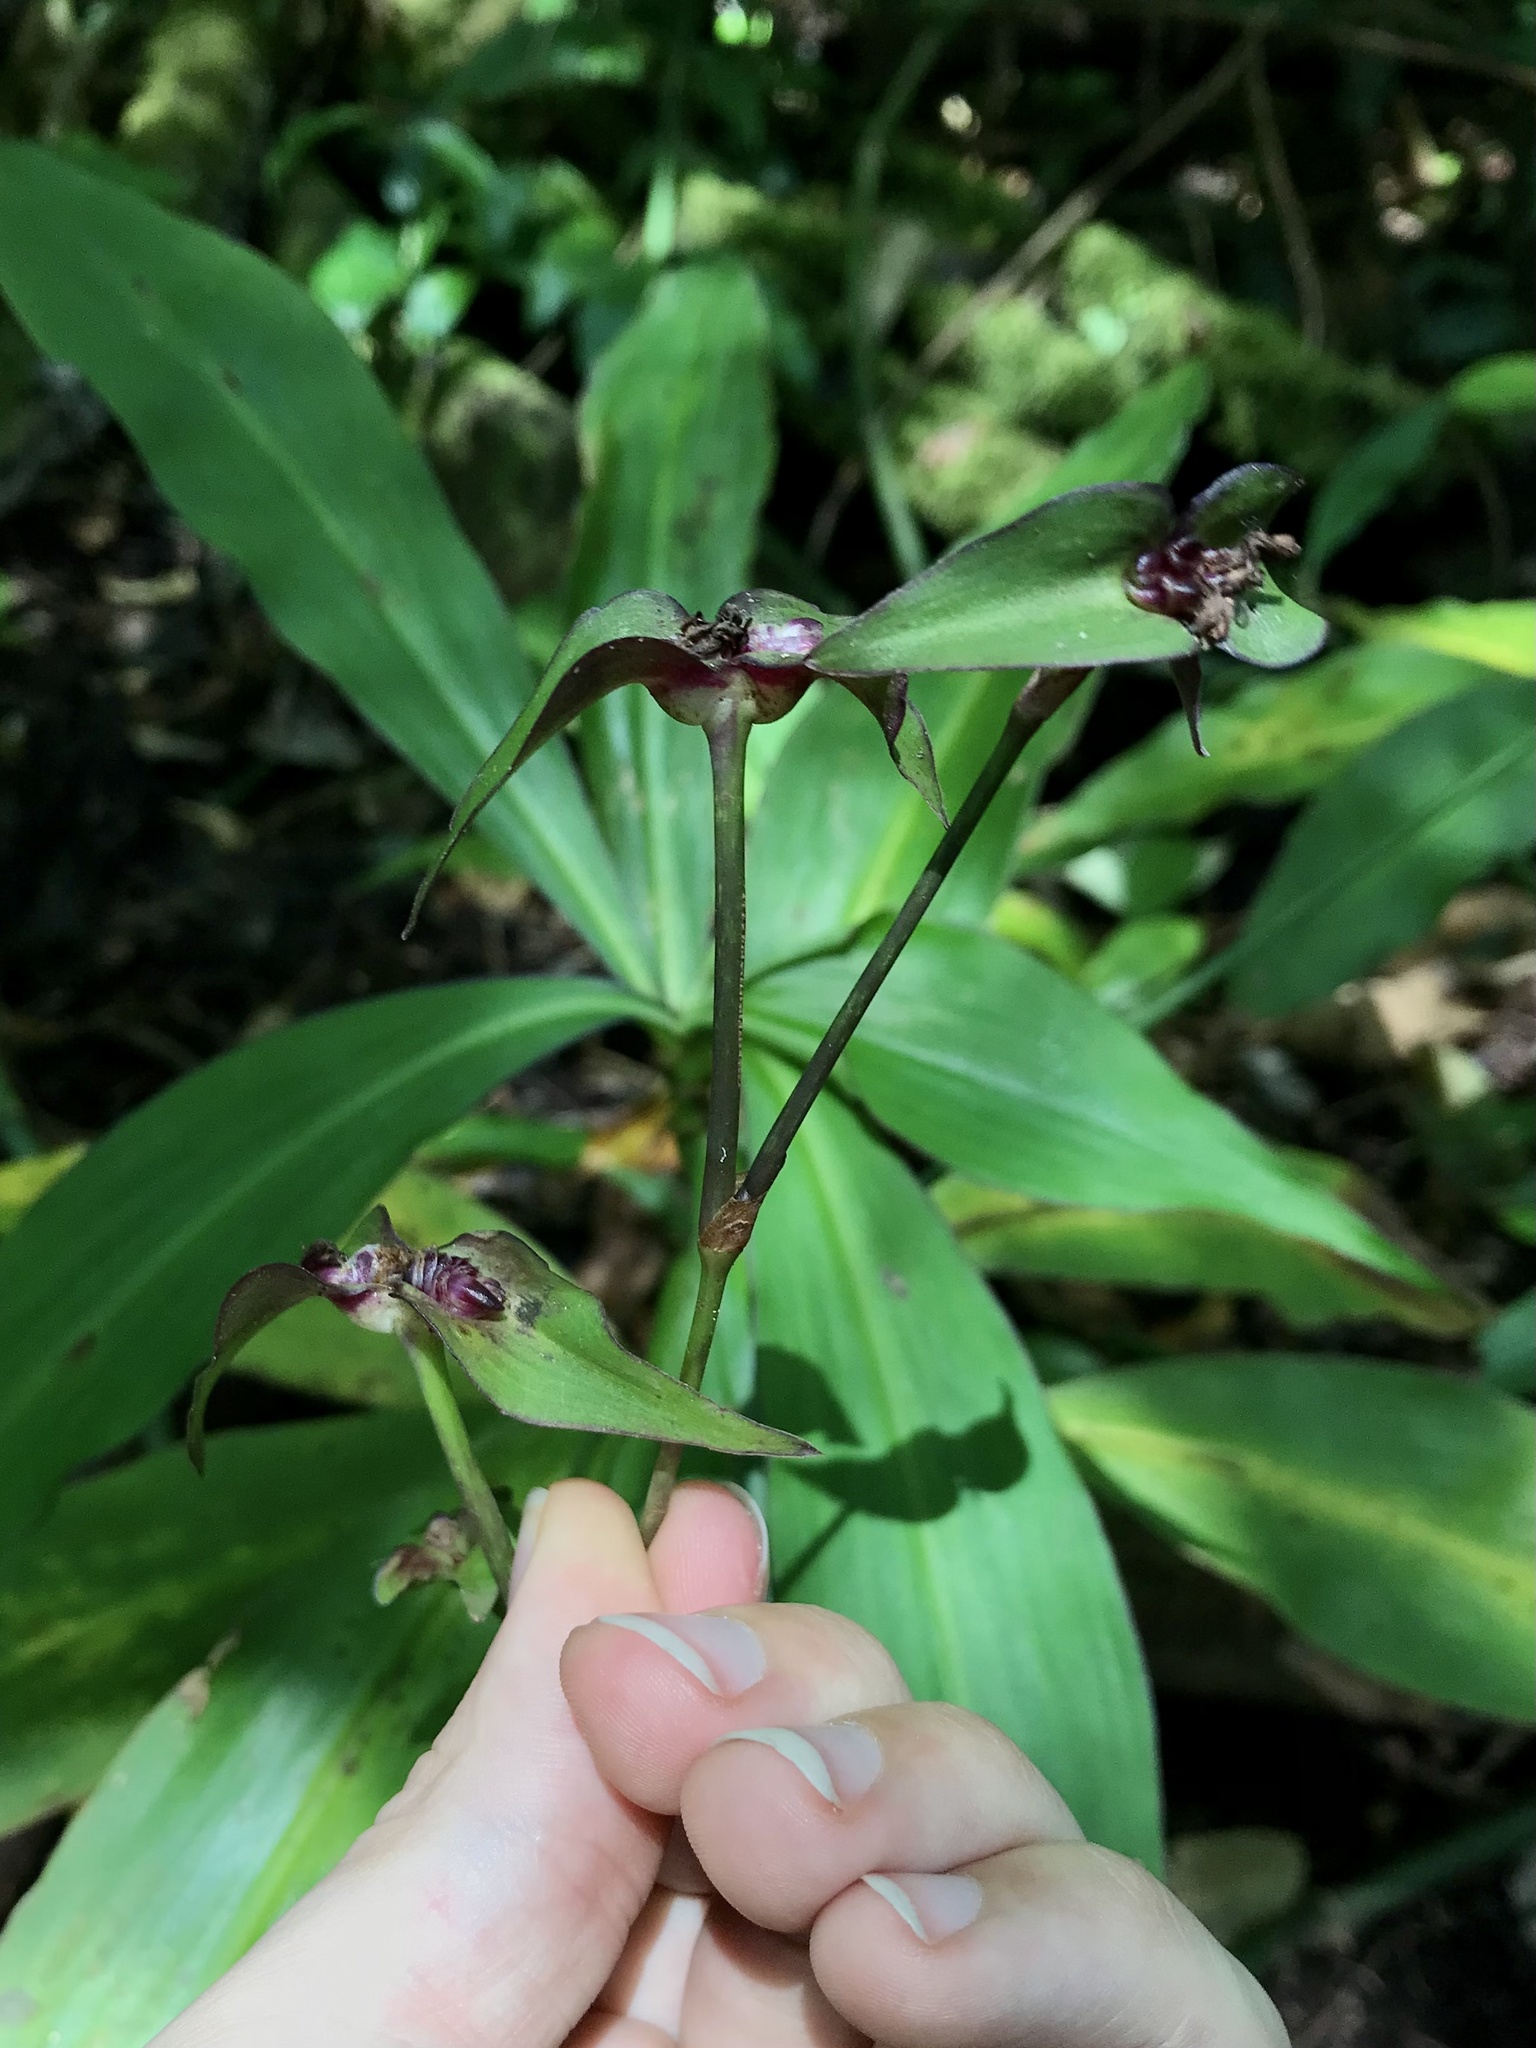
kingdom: Plantae
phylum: Tracheophyta
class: Liliopsida
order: Commelinales
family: Commelinaceae
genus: Tradescantia
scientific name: Tradescantia zanonia
